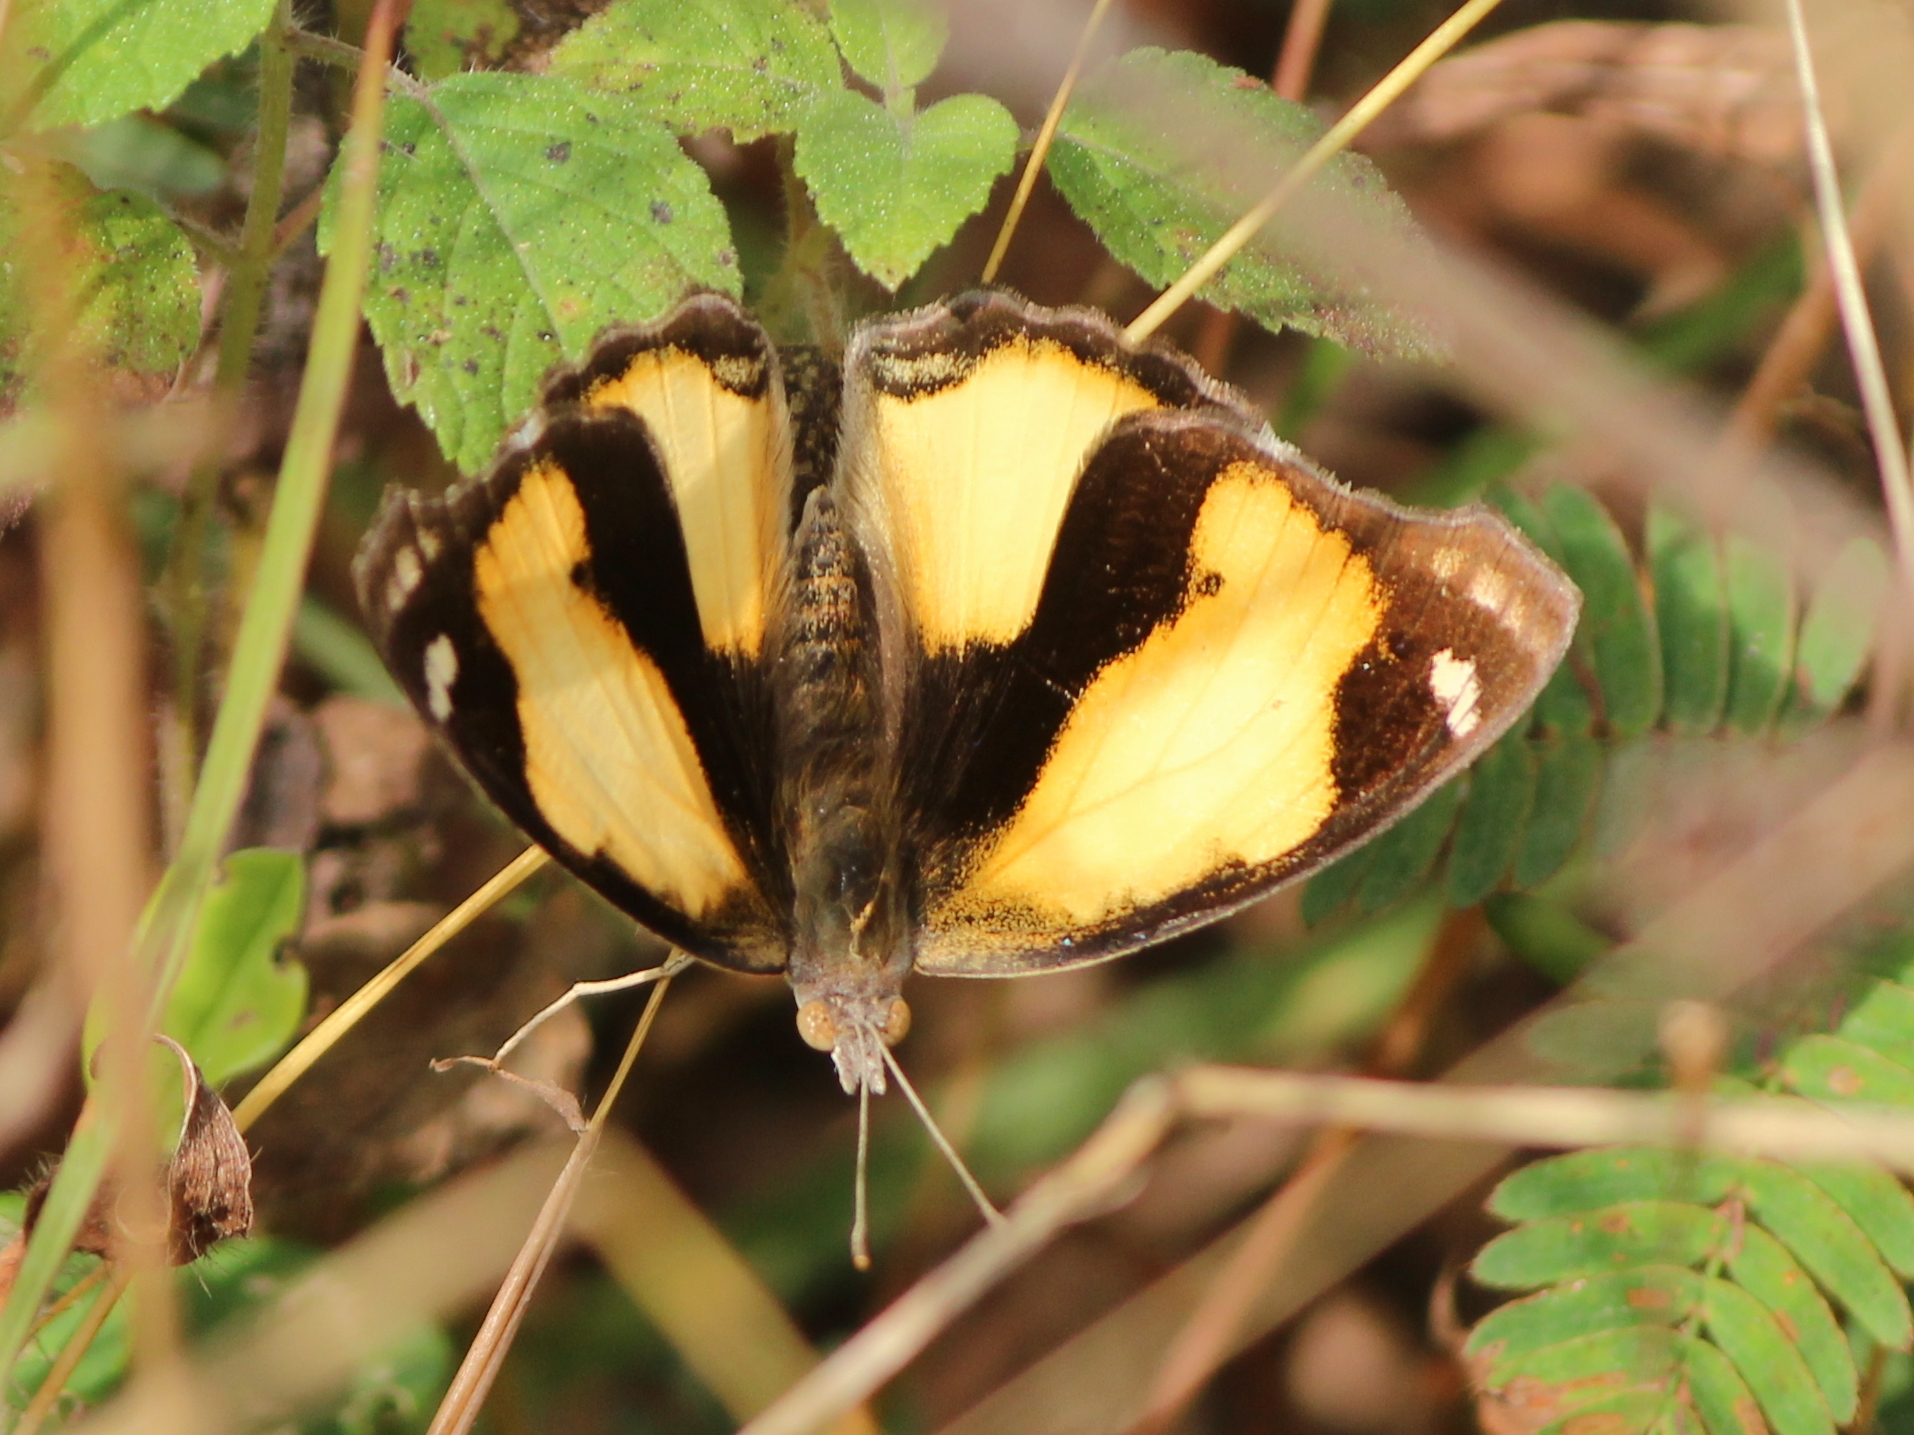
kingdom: Animalia
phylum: Arthropoda
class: Insecta
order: Lepidoptera
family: Nymphalidae
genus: Junonia
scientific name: Junonia hierta
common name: Yellow pansy
